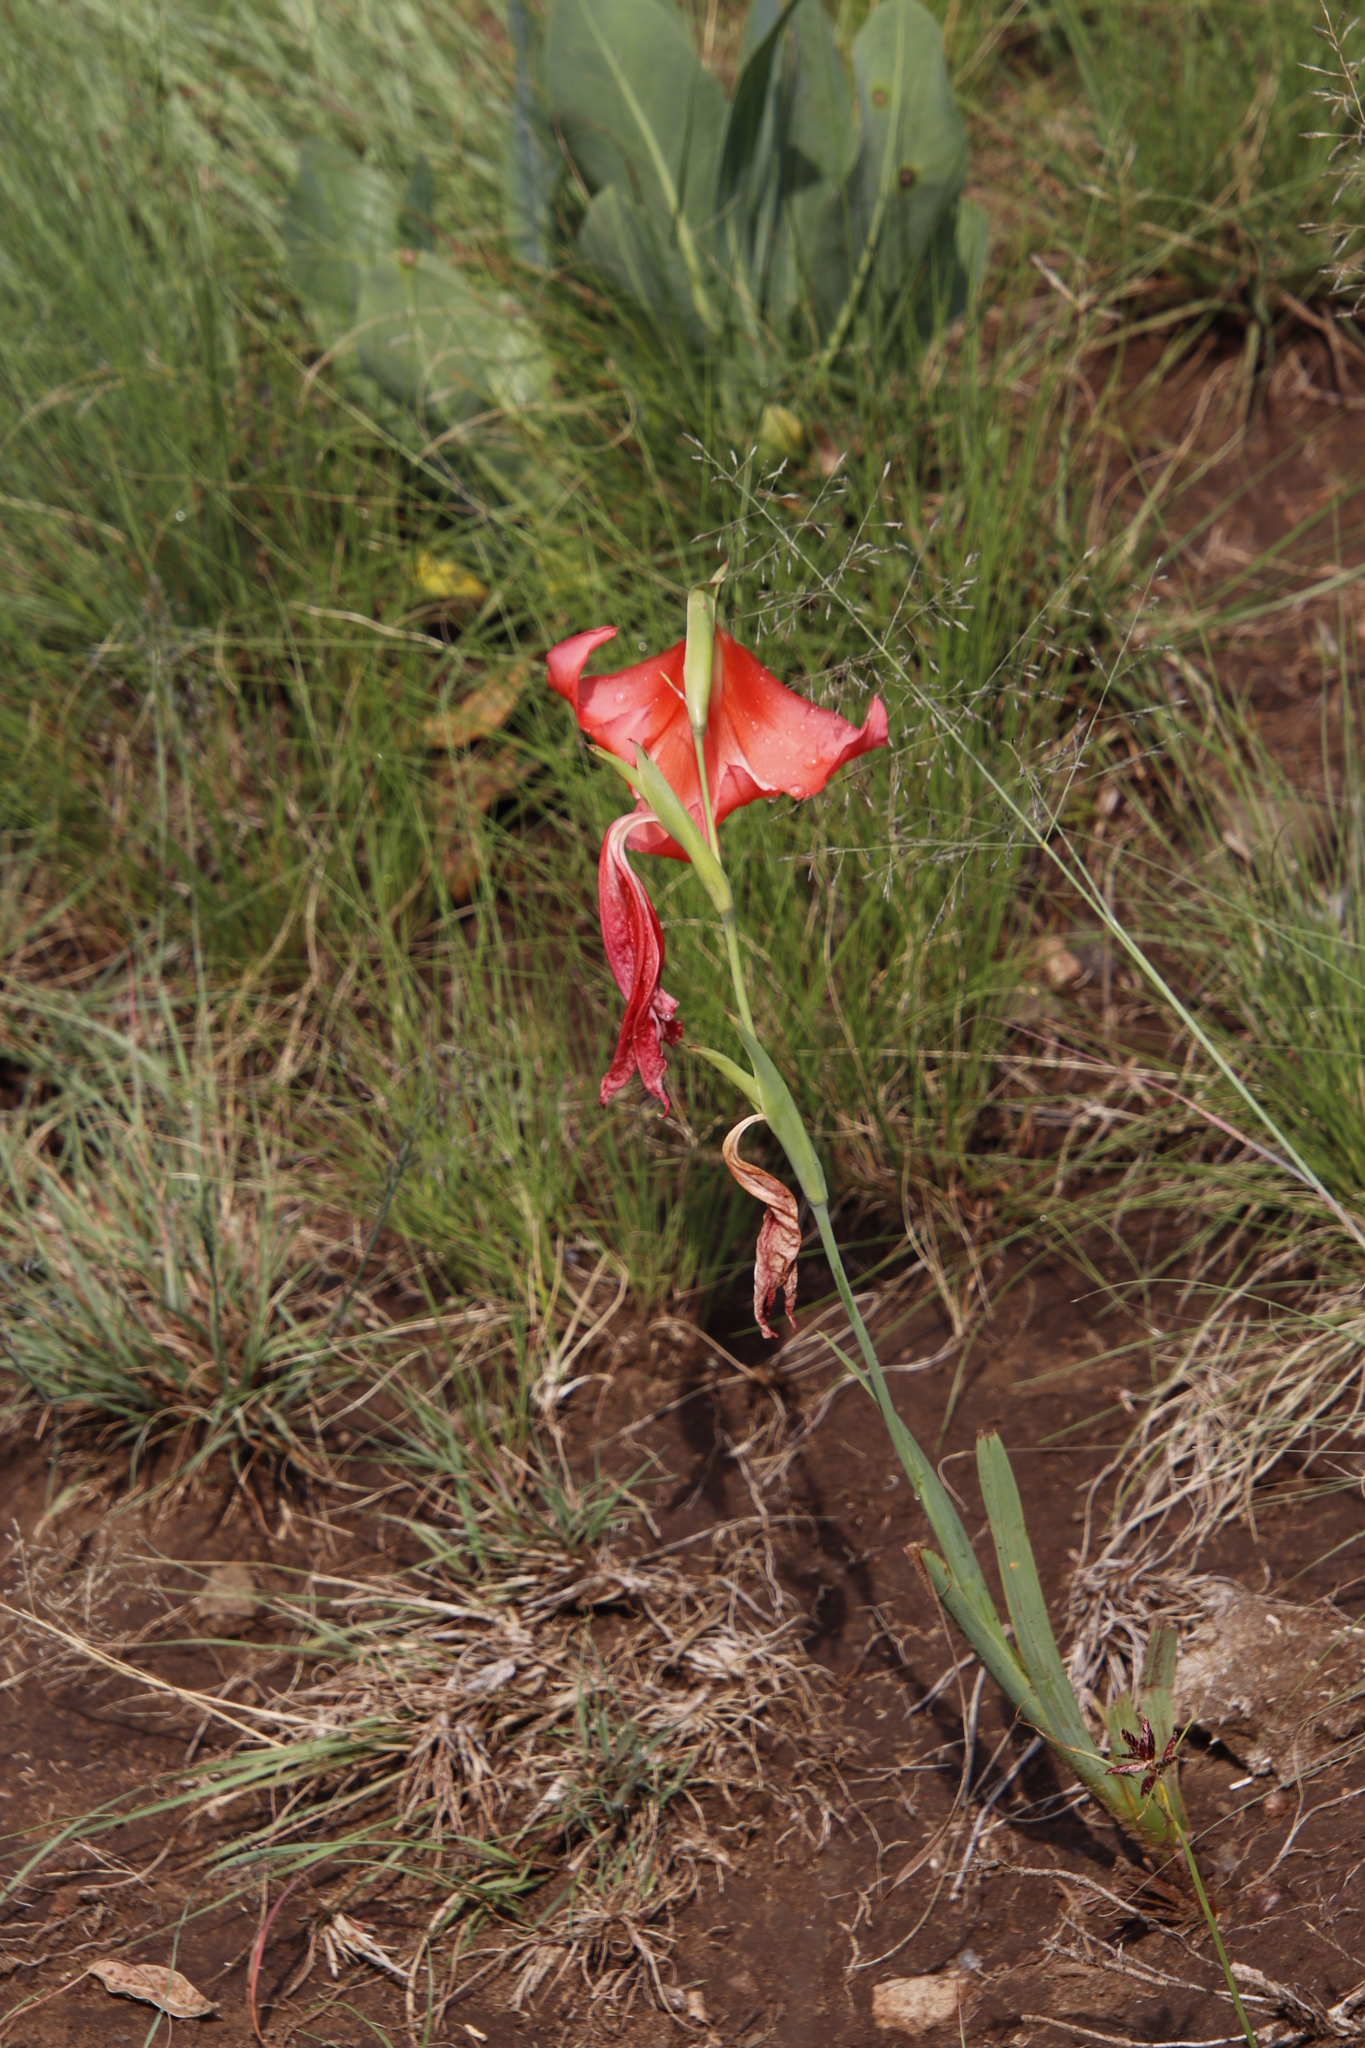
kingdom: Plantae
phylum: Tracheophyta
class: Liliopsida
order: Asparagales
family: Iridaceae
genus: Gladiolus
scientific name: Gladiolus saundersii
